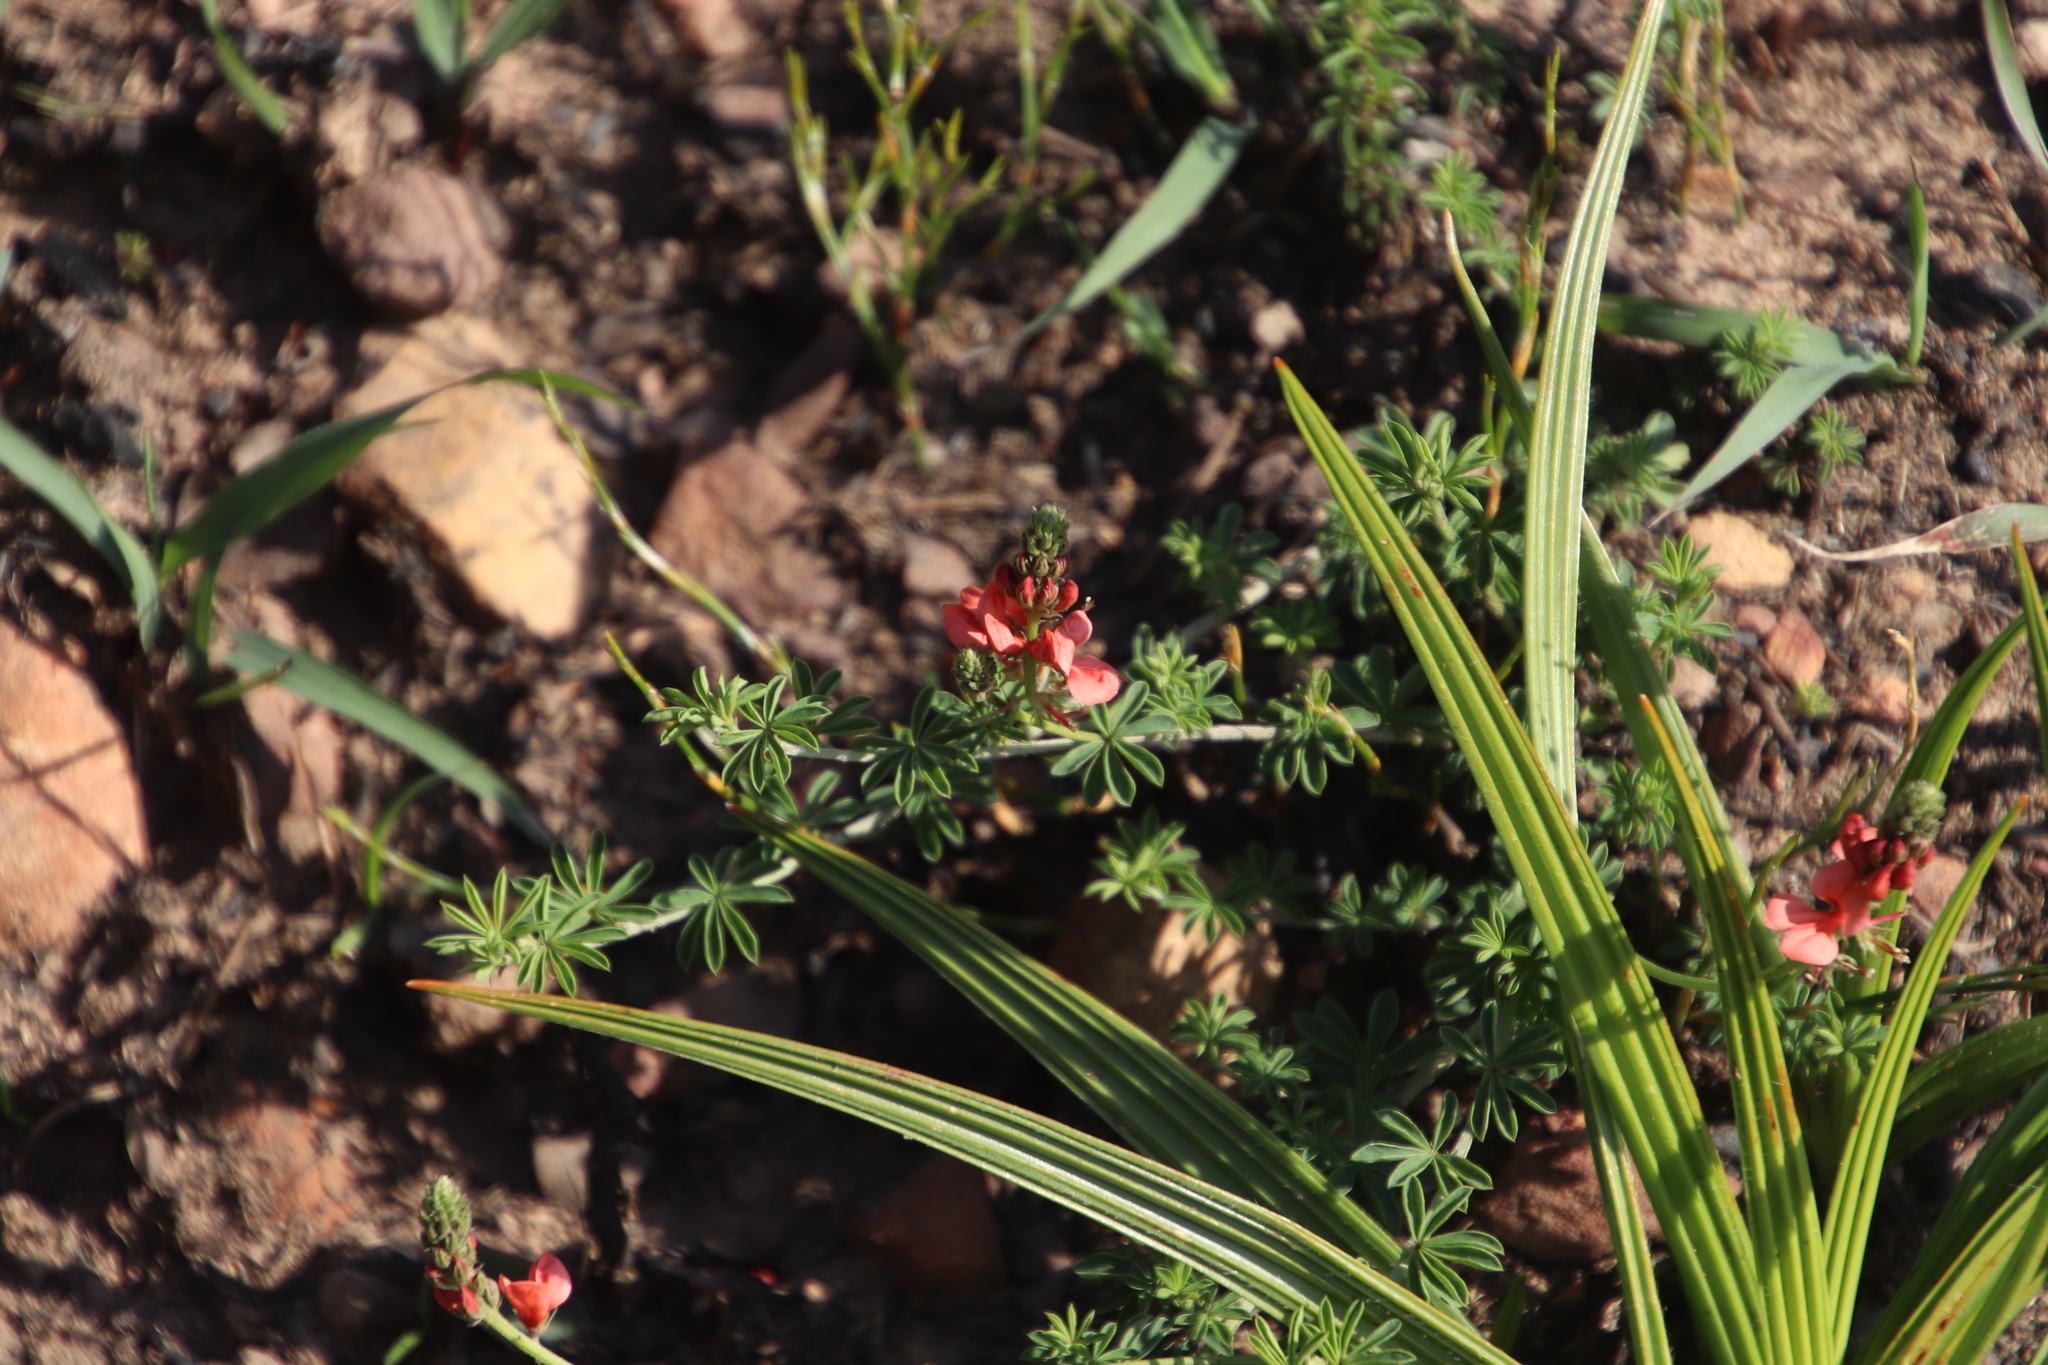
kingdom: Plantae
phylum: Tracheophyta
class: Magnoliopsida
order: Fabales
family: Fabaceae
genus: Indigofera
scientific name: Indigofera digitata
